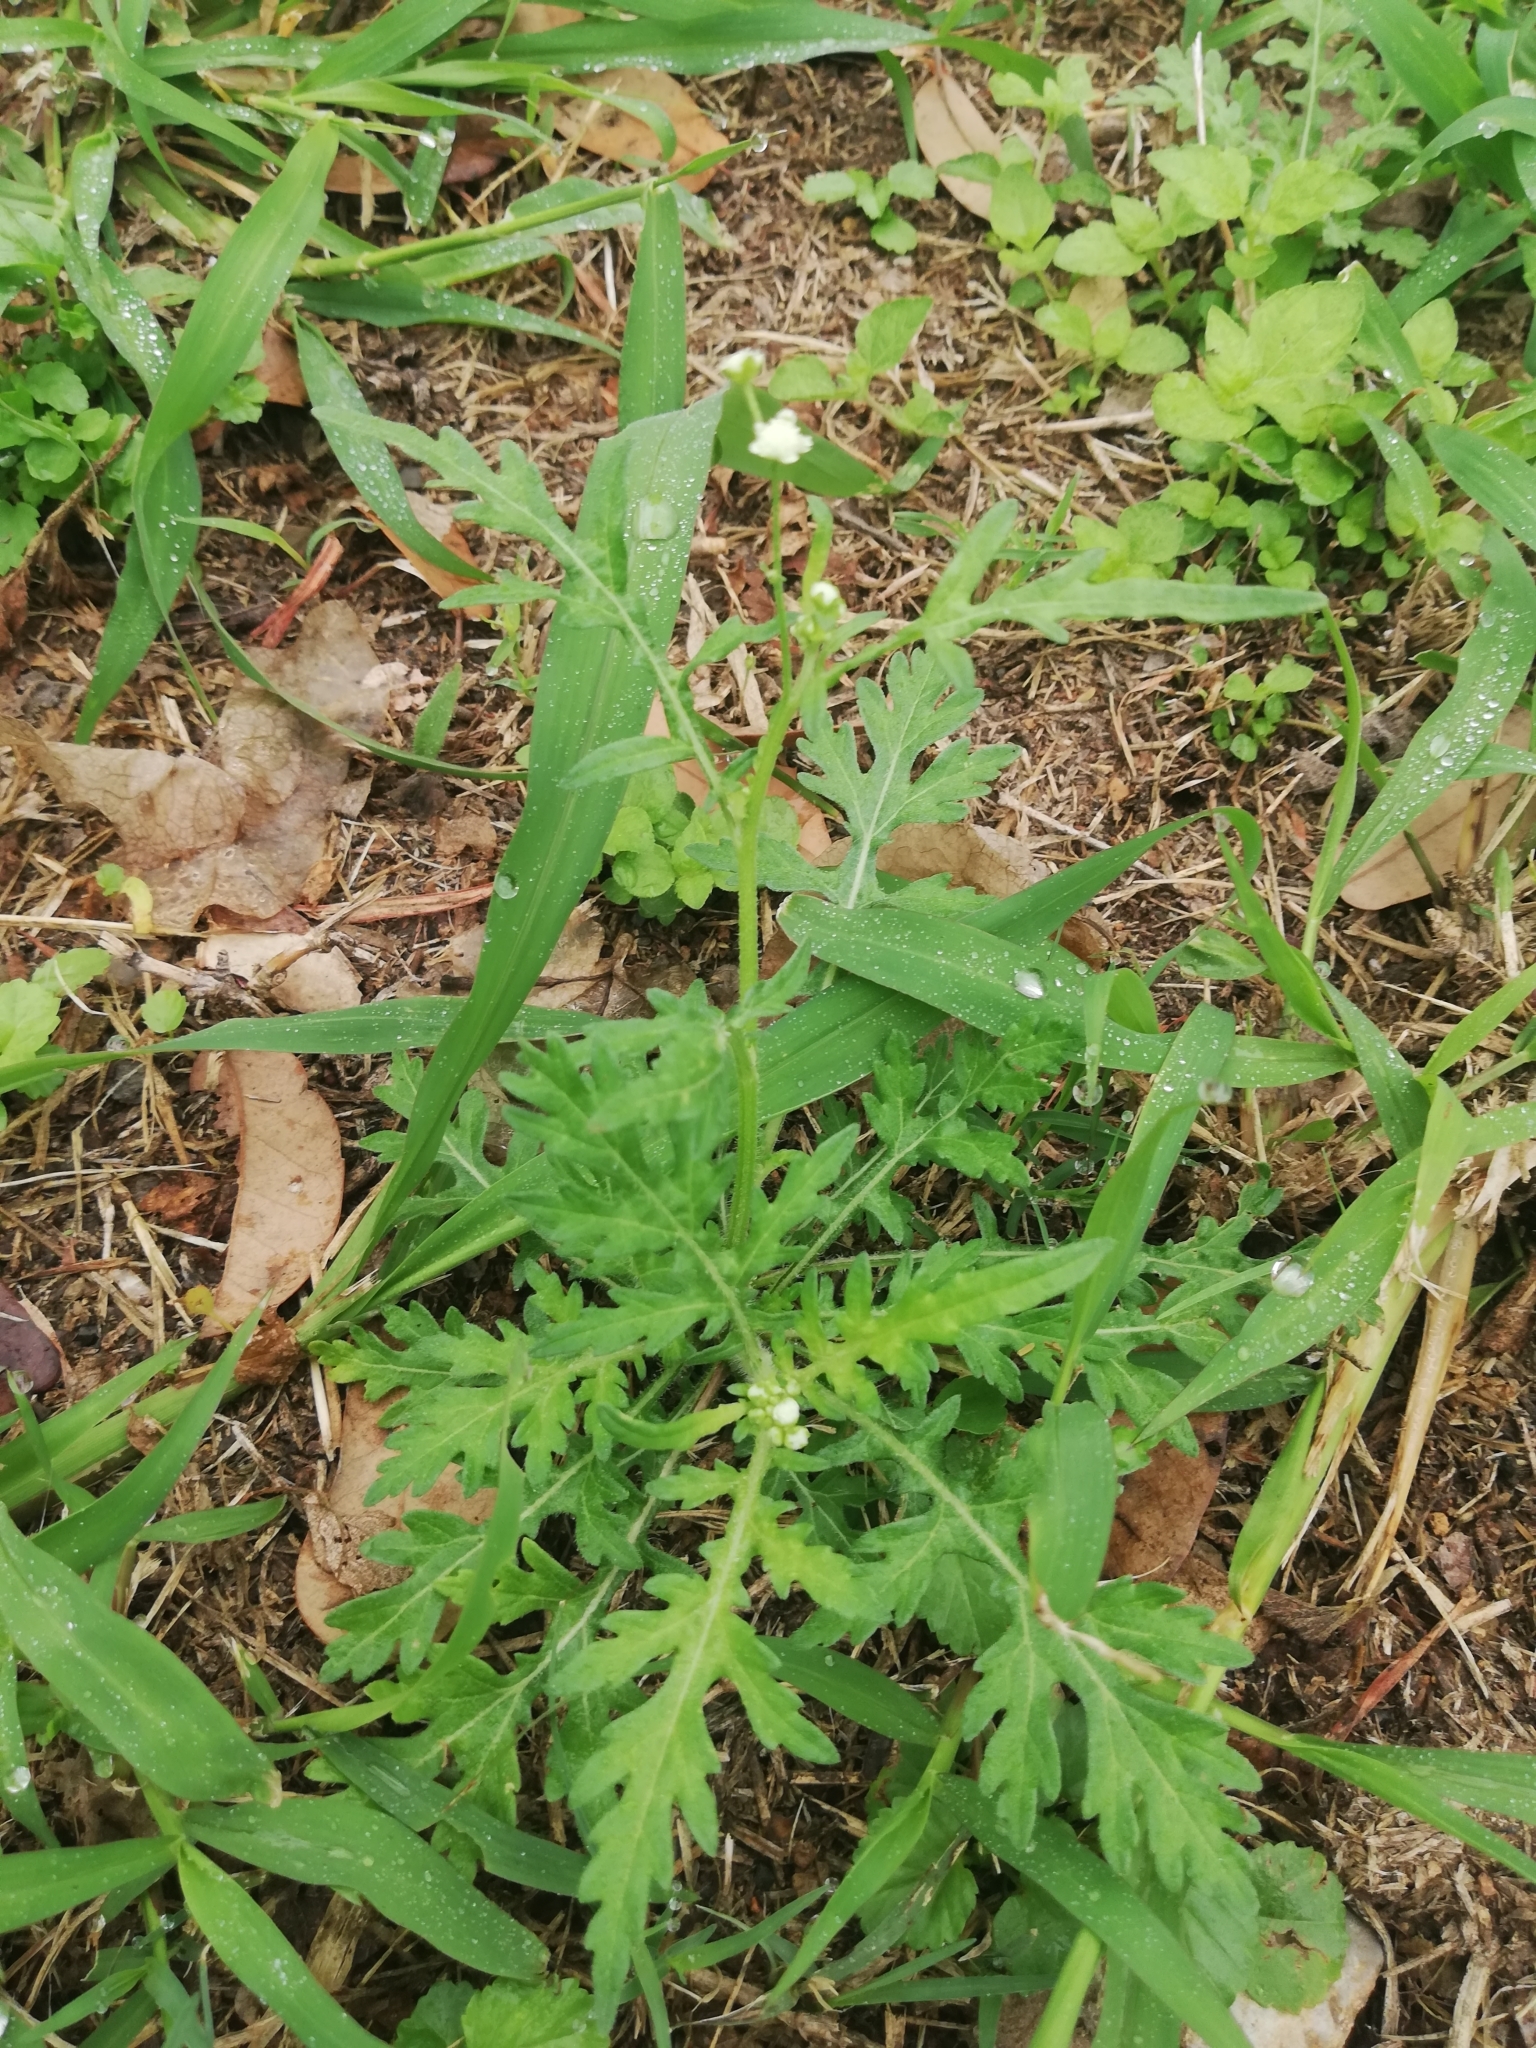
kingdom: Plantae
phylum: Tracheophyta
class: Magnoliopsida
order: Asterales
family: Asteraceae
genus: Parthenium
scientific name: Parthenium hysterophorus
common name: Santa maria feverfew
